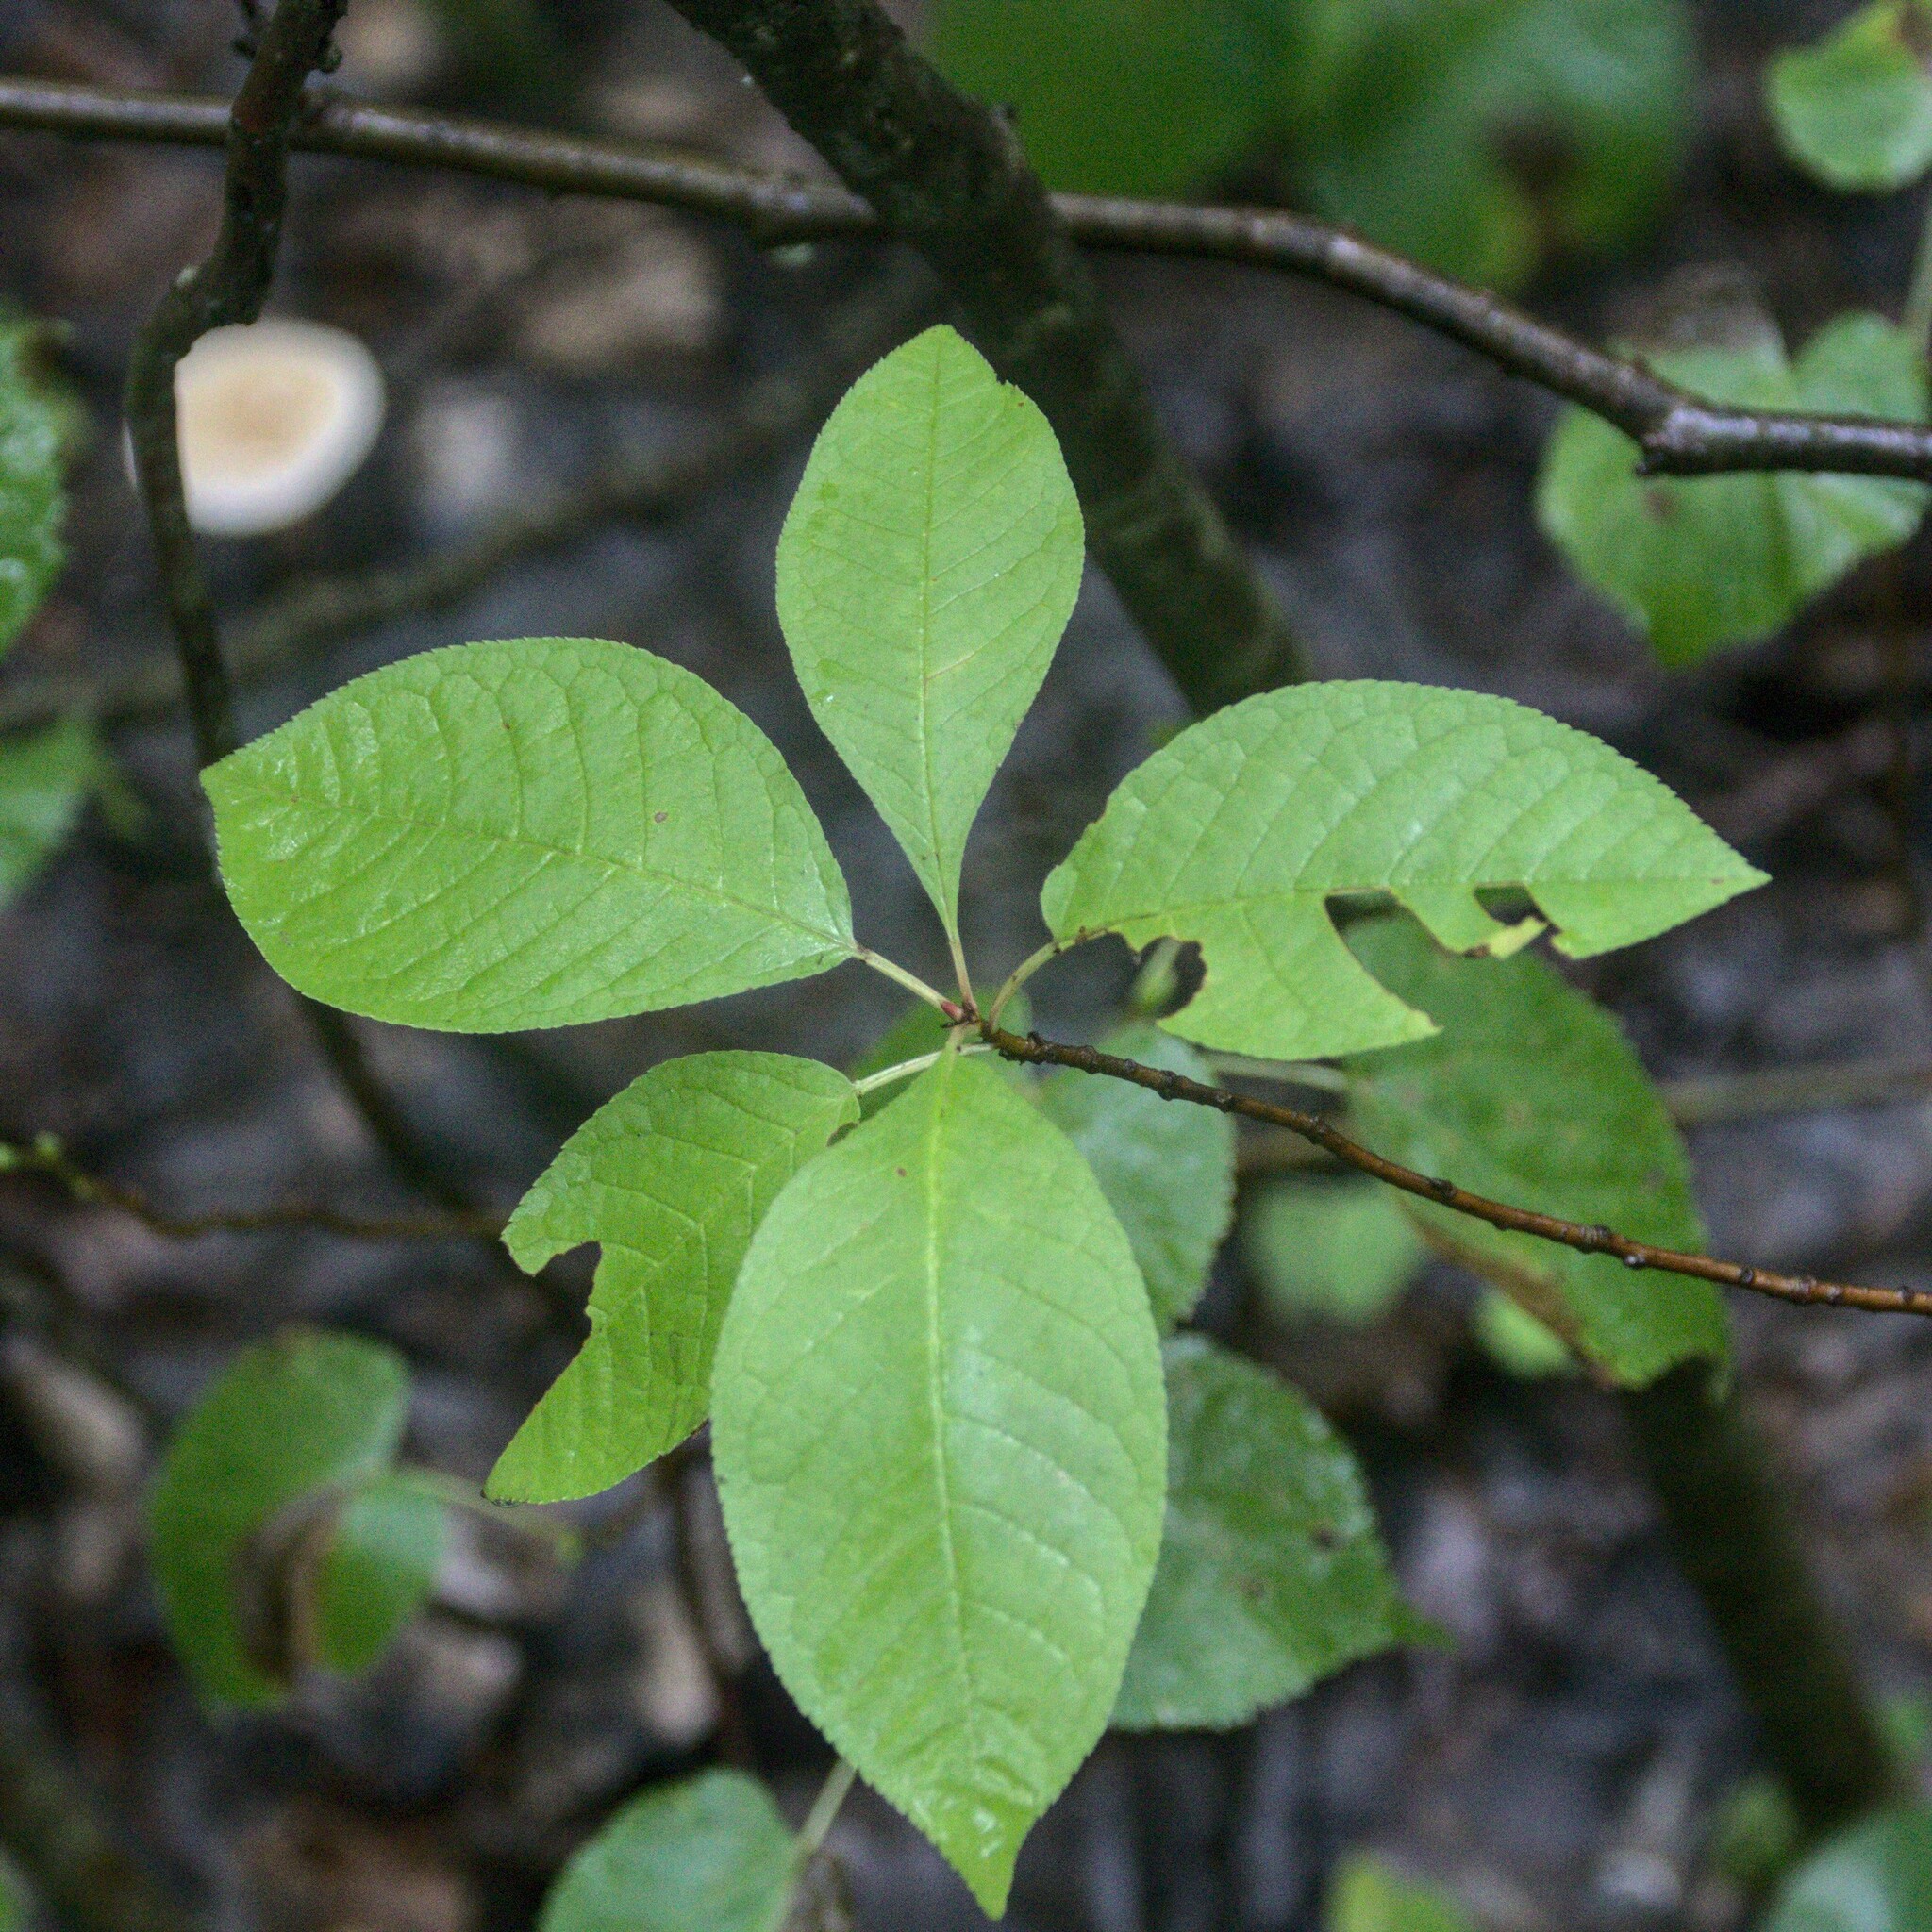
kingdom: Plantae
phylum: Tracheophyta
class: Magnoliopsida
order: Rosales
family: Rosaceae
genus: Prunus
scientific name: Prunus padus
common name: Bird cherry
